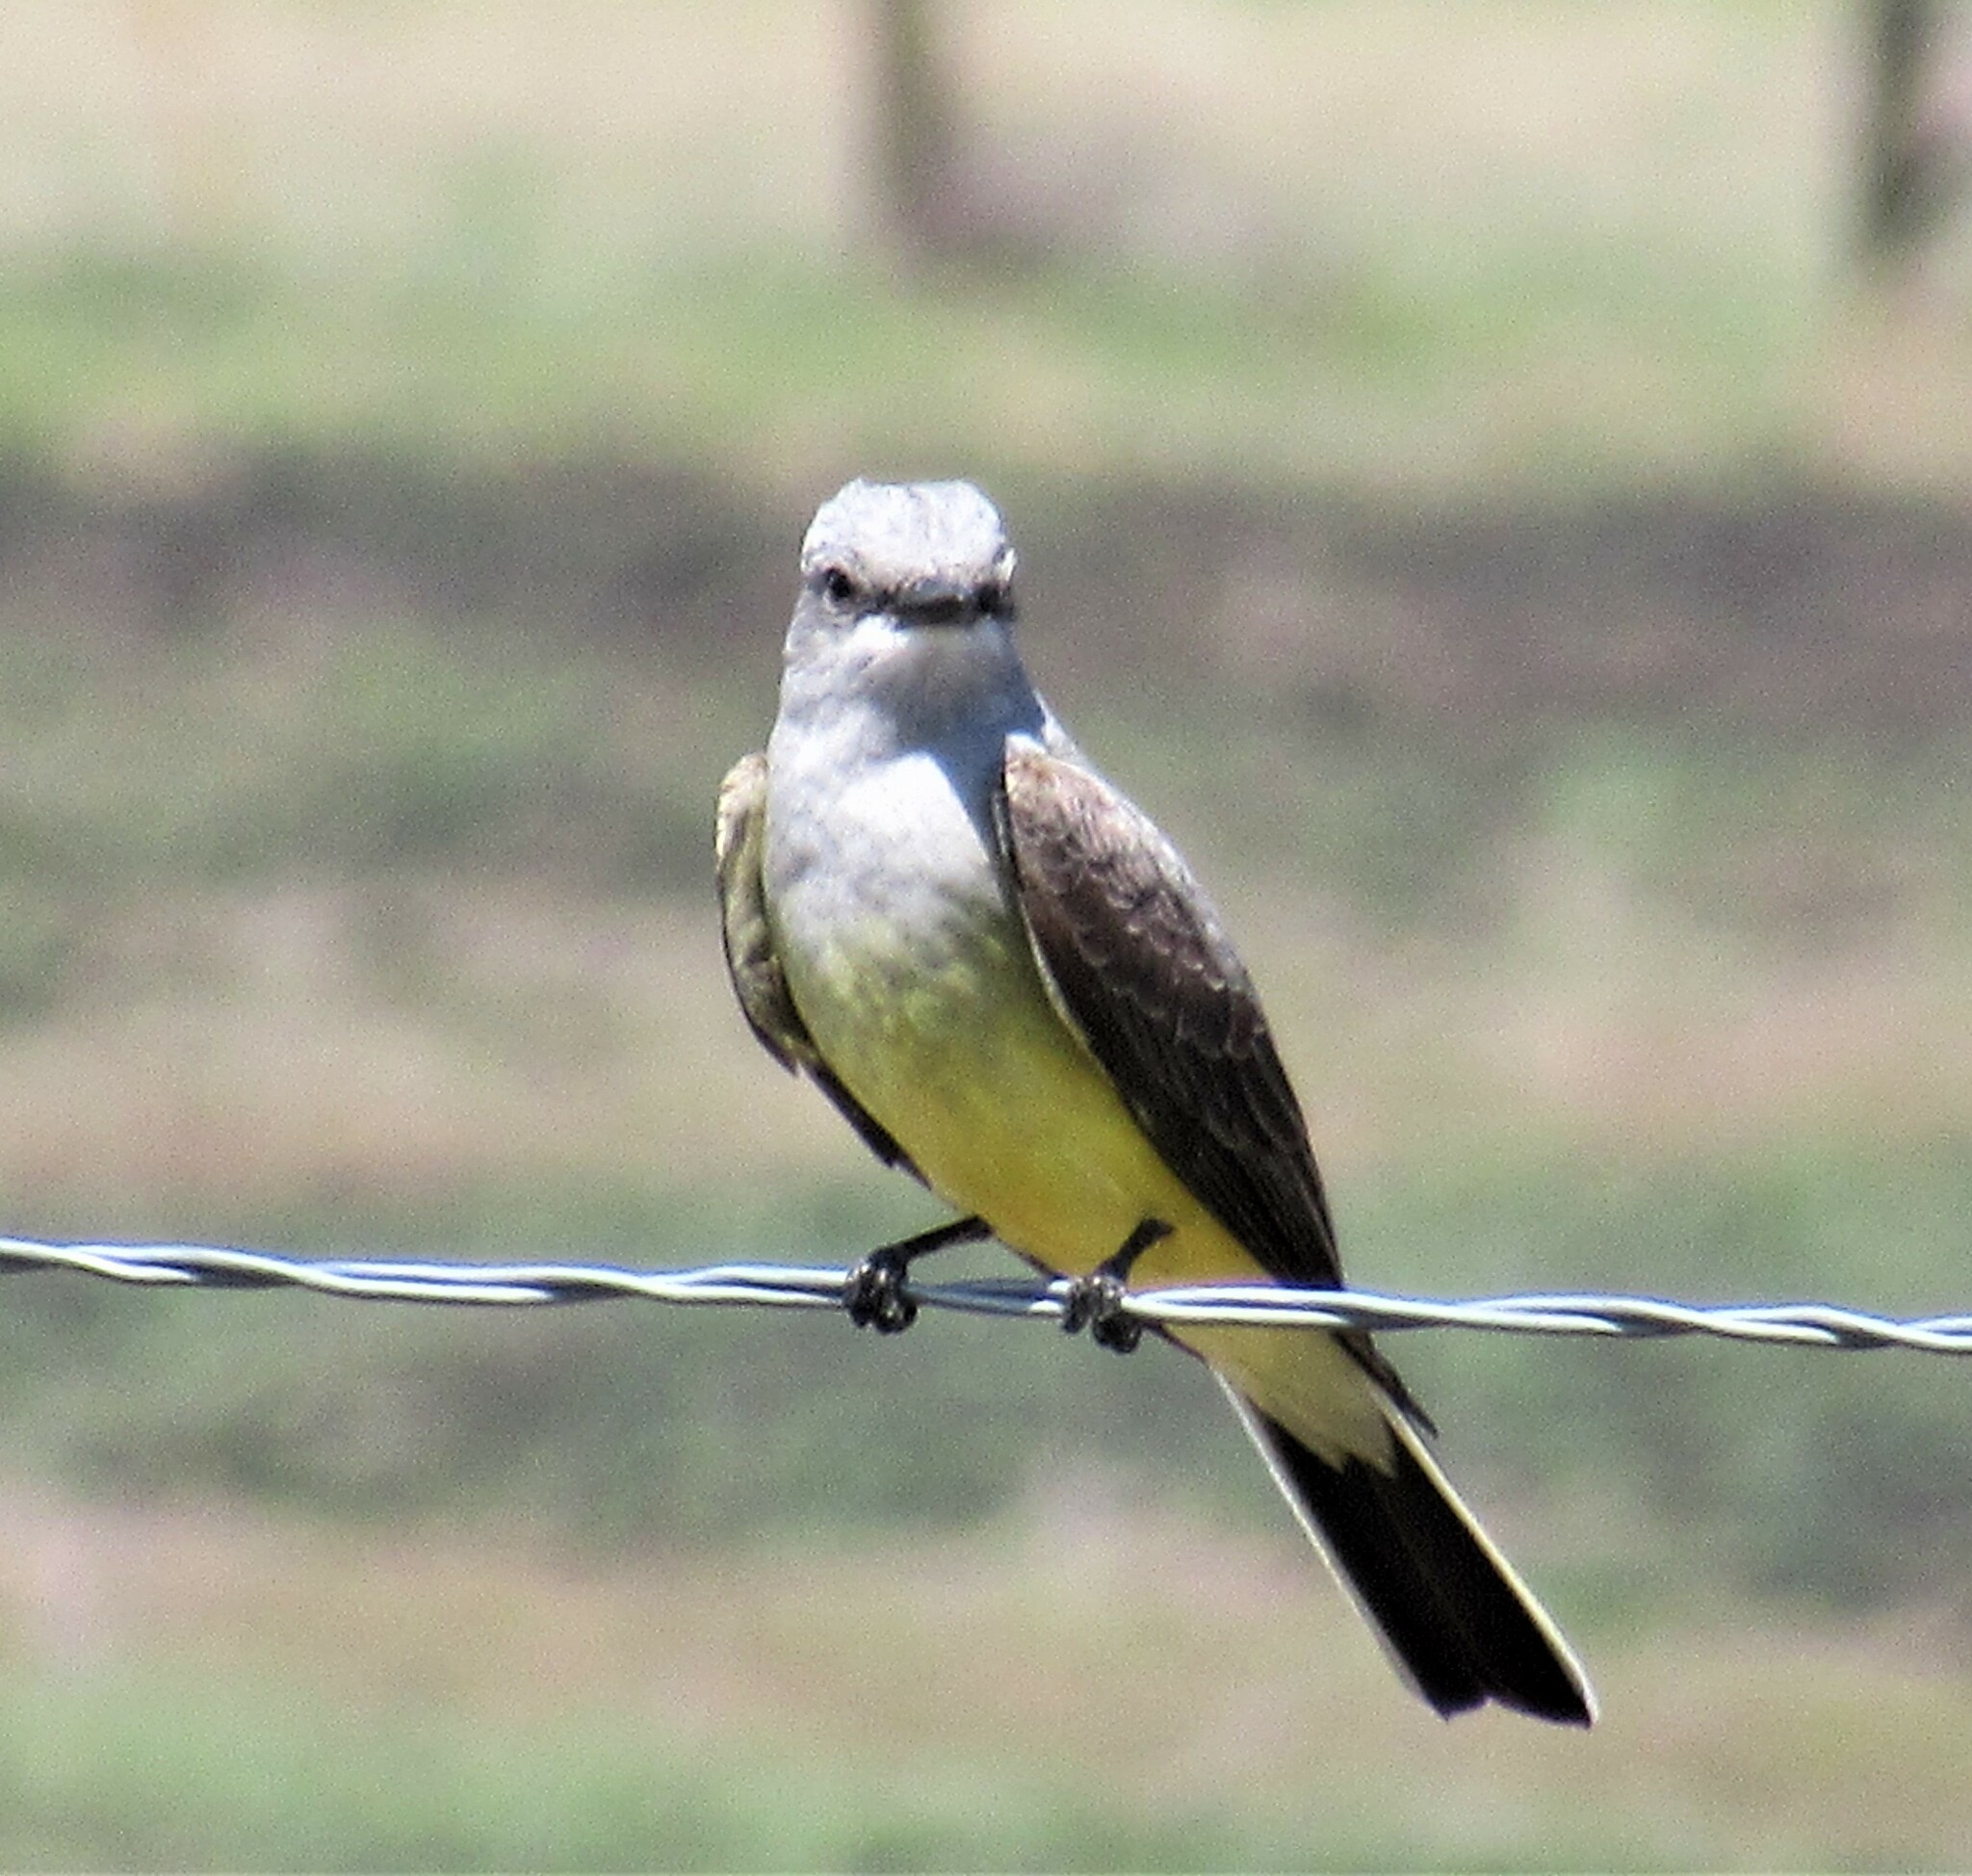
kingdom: Animalia
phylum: Chordata
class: Aves
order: Passeriformes
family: Tyrannidae
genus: Tyrannus
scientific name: Tyrannus verticalis
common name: Western kingbird
